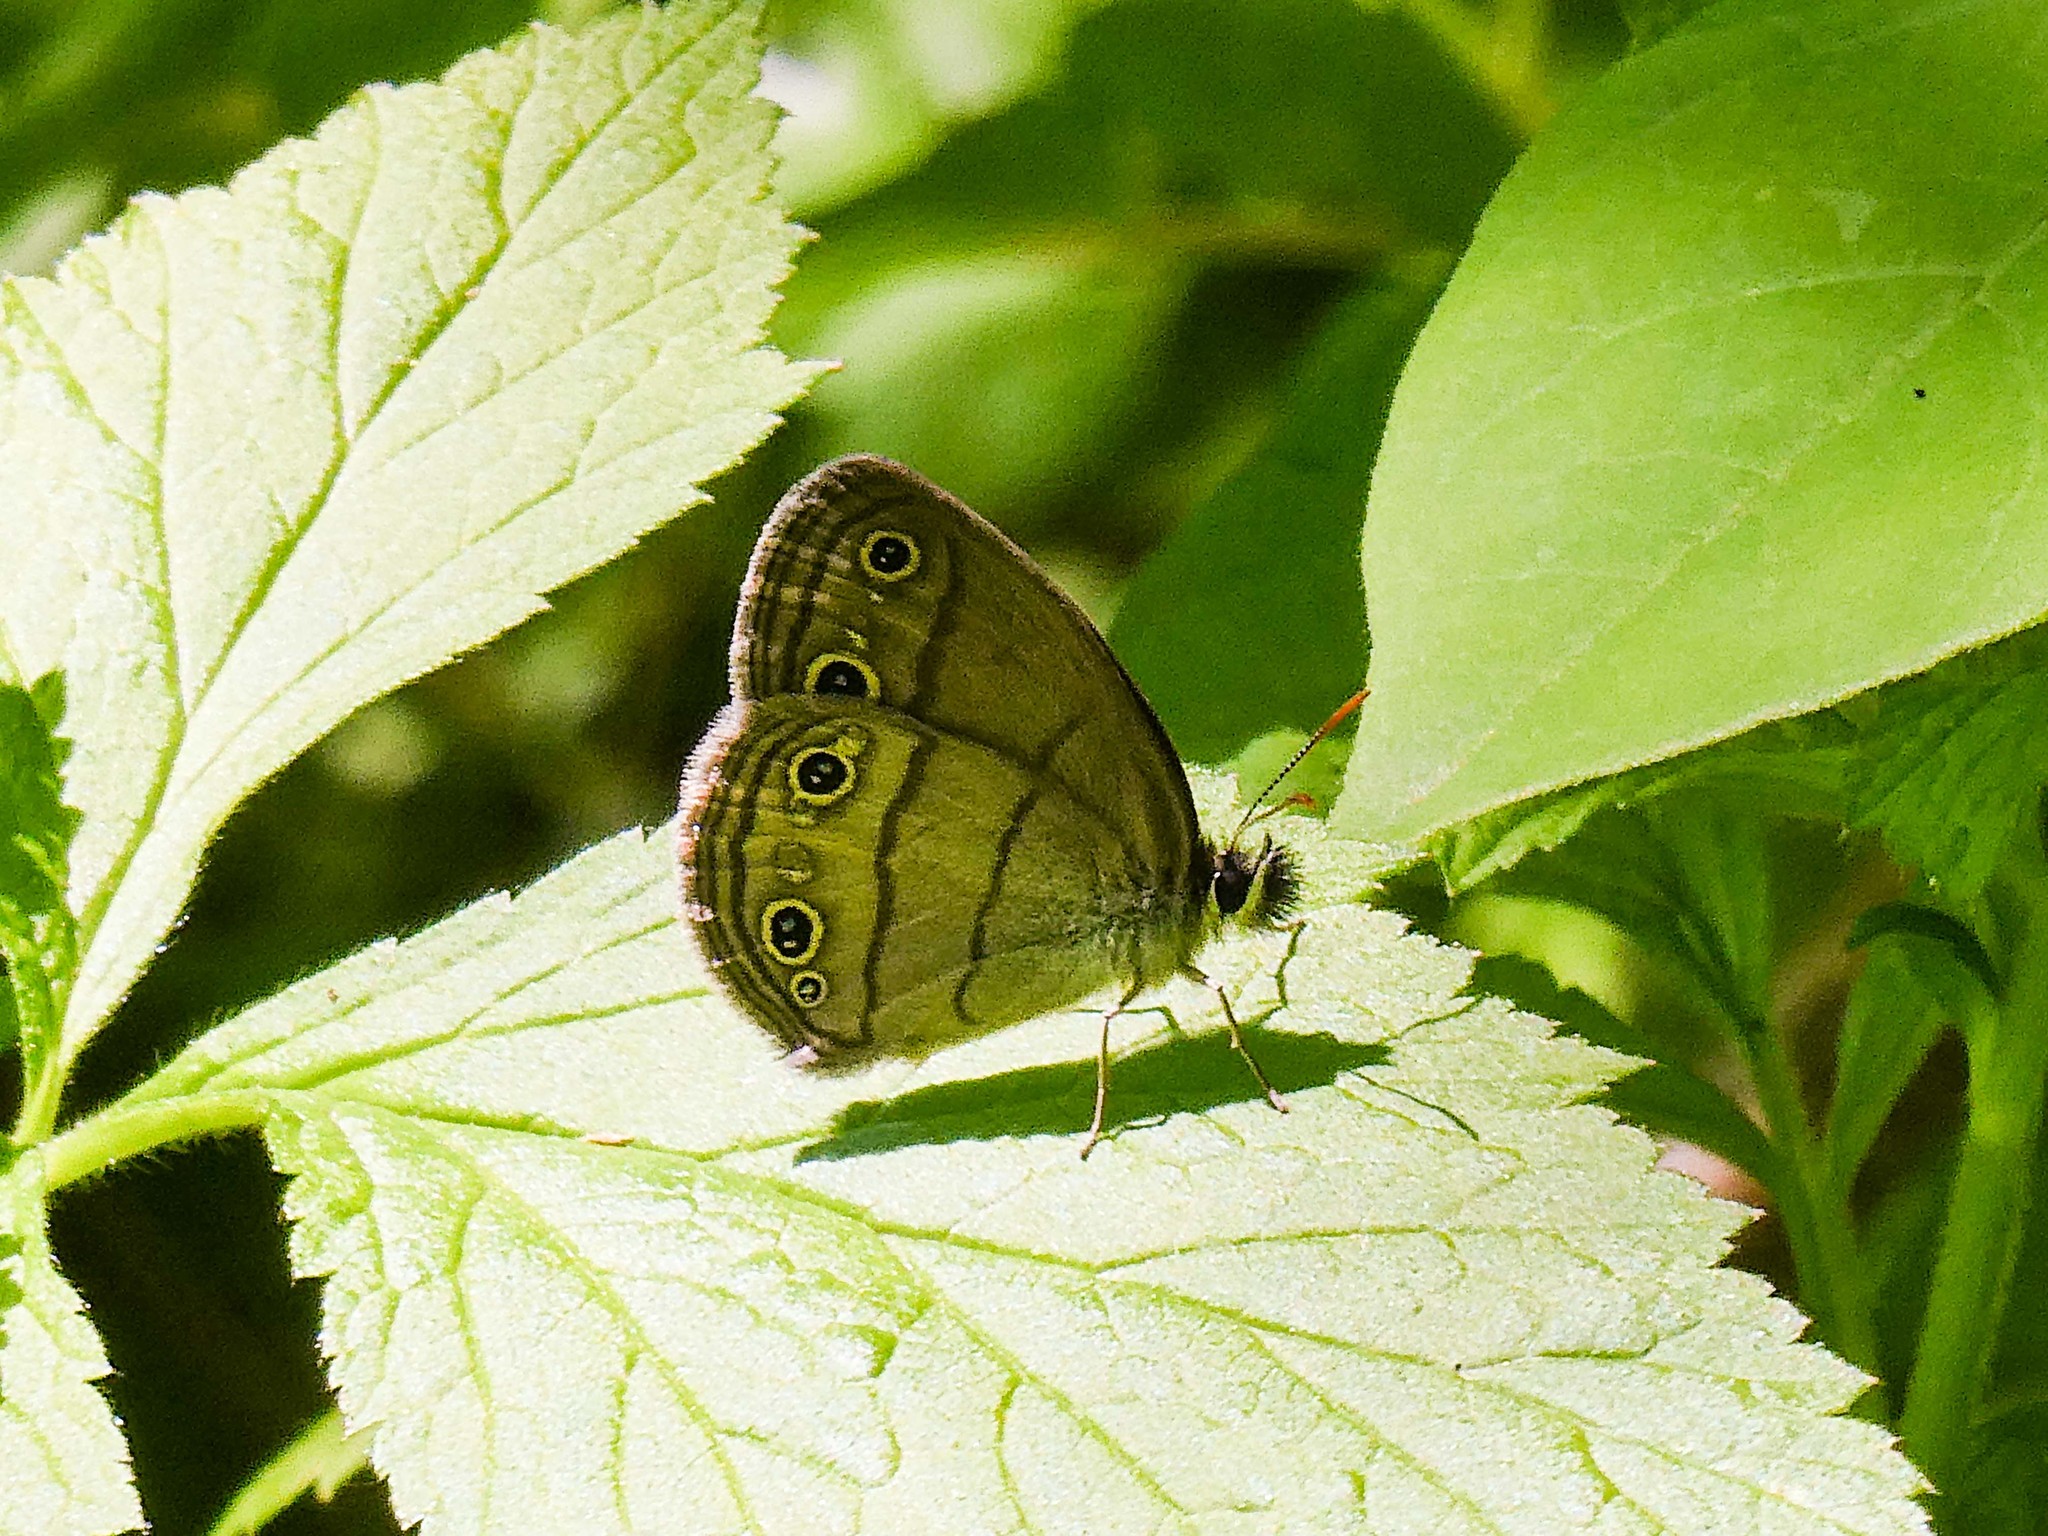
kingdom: Animalia
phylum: Arthropoda
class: Insecta
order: Lepidoptera
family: Nymphalidae
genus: Euptychia
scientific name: Euptychia cymela
